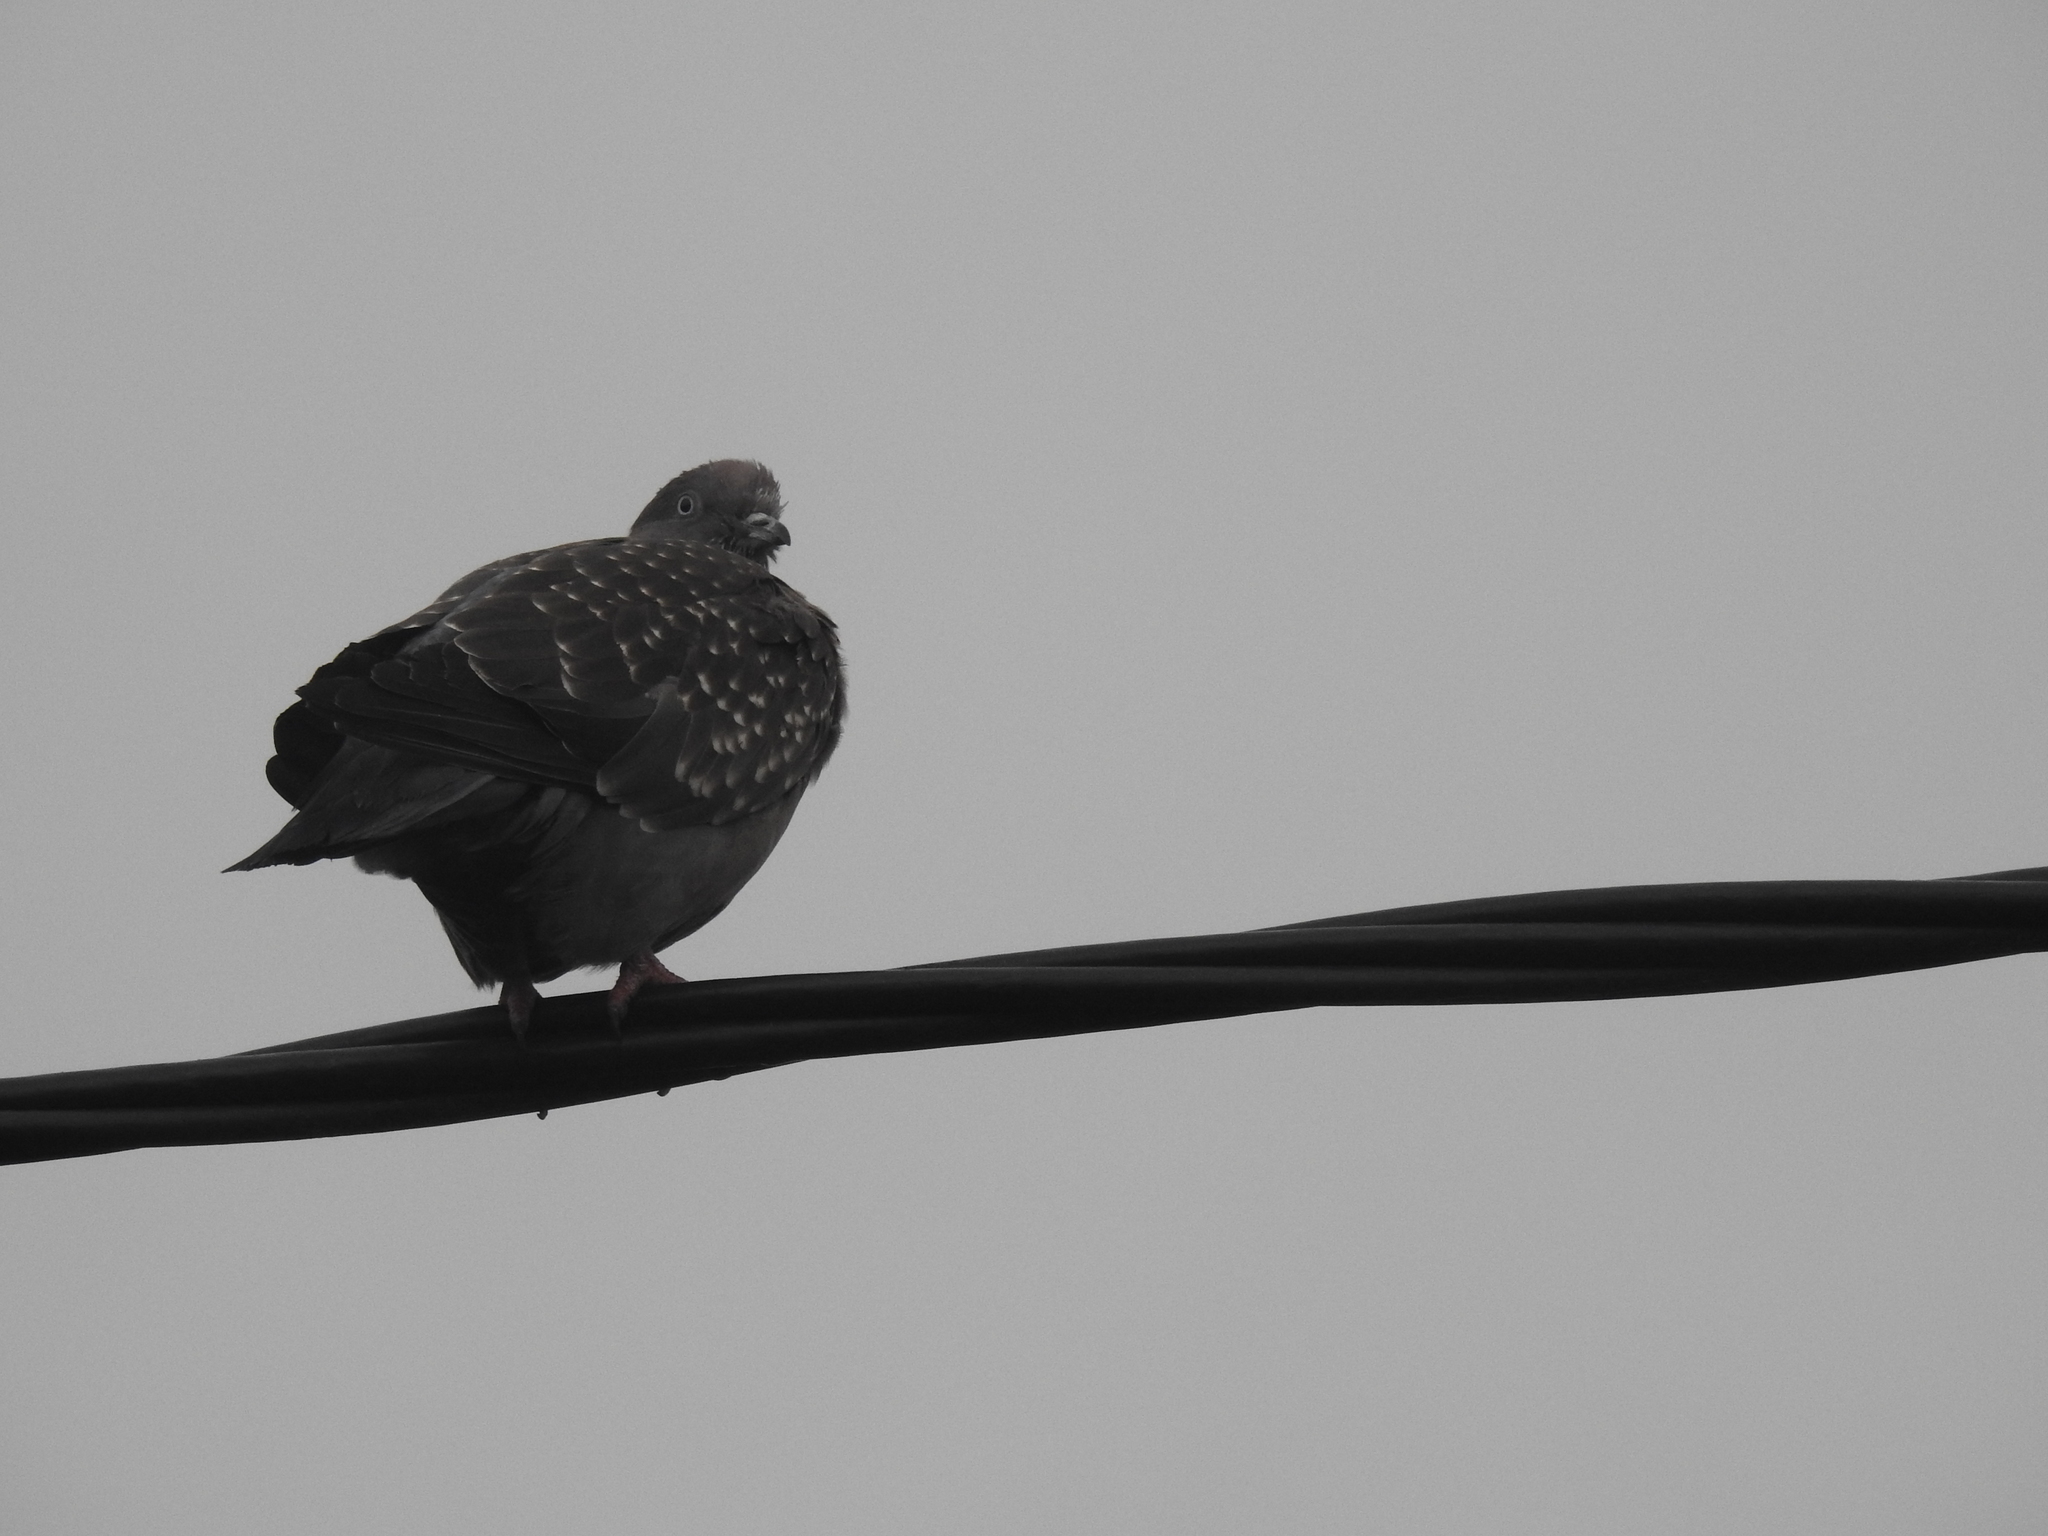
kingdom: Animalia
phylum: Chordata
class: Aves
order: Columbiformes
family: Columbidae
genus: Patagioenas
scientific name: Patagioenas maculosa
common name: Spot-winged pigeon
